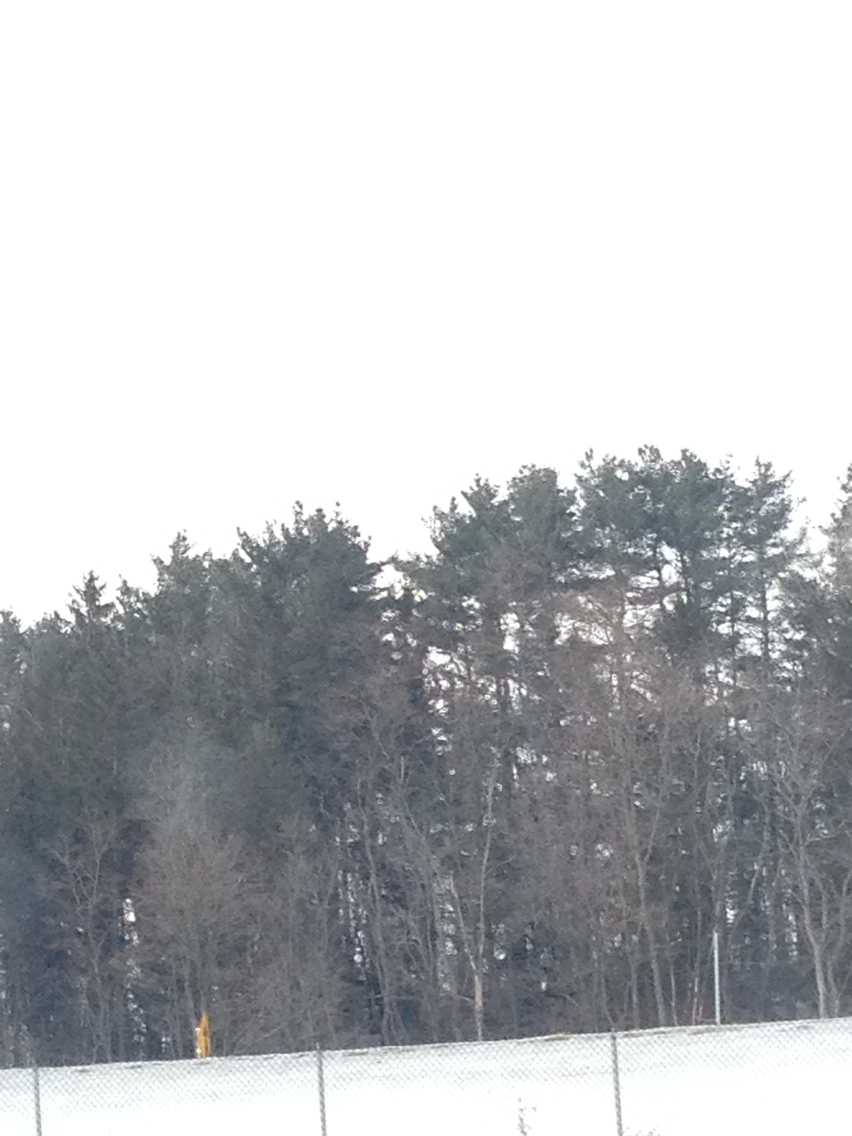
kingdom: Plantae
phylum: Tracheophyta
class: Pinopsida
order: Pinales
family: Pinaceae
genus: Pinus
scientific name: Pinus strobus
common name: Weymouth pine
